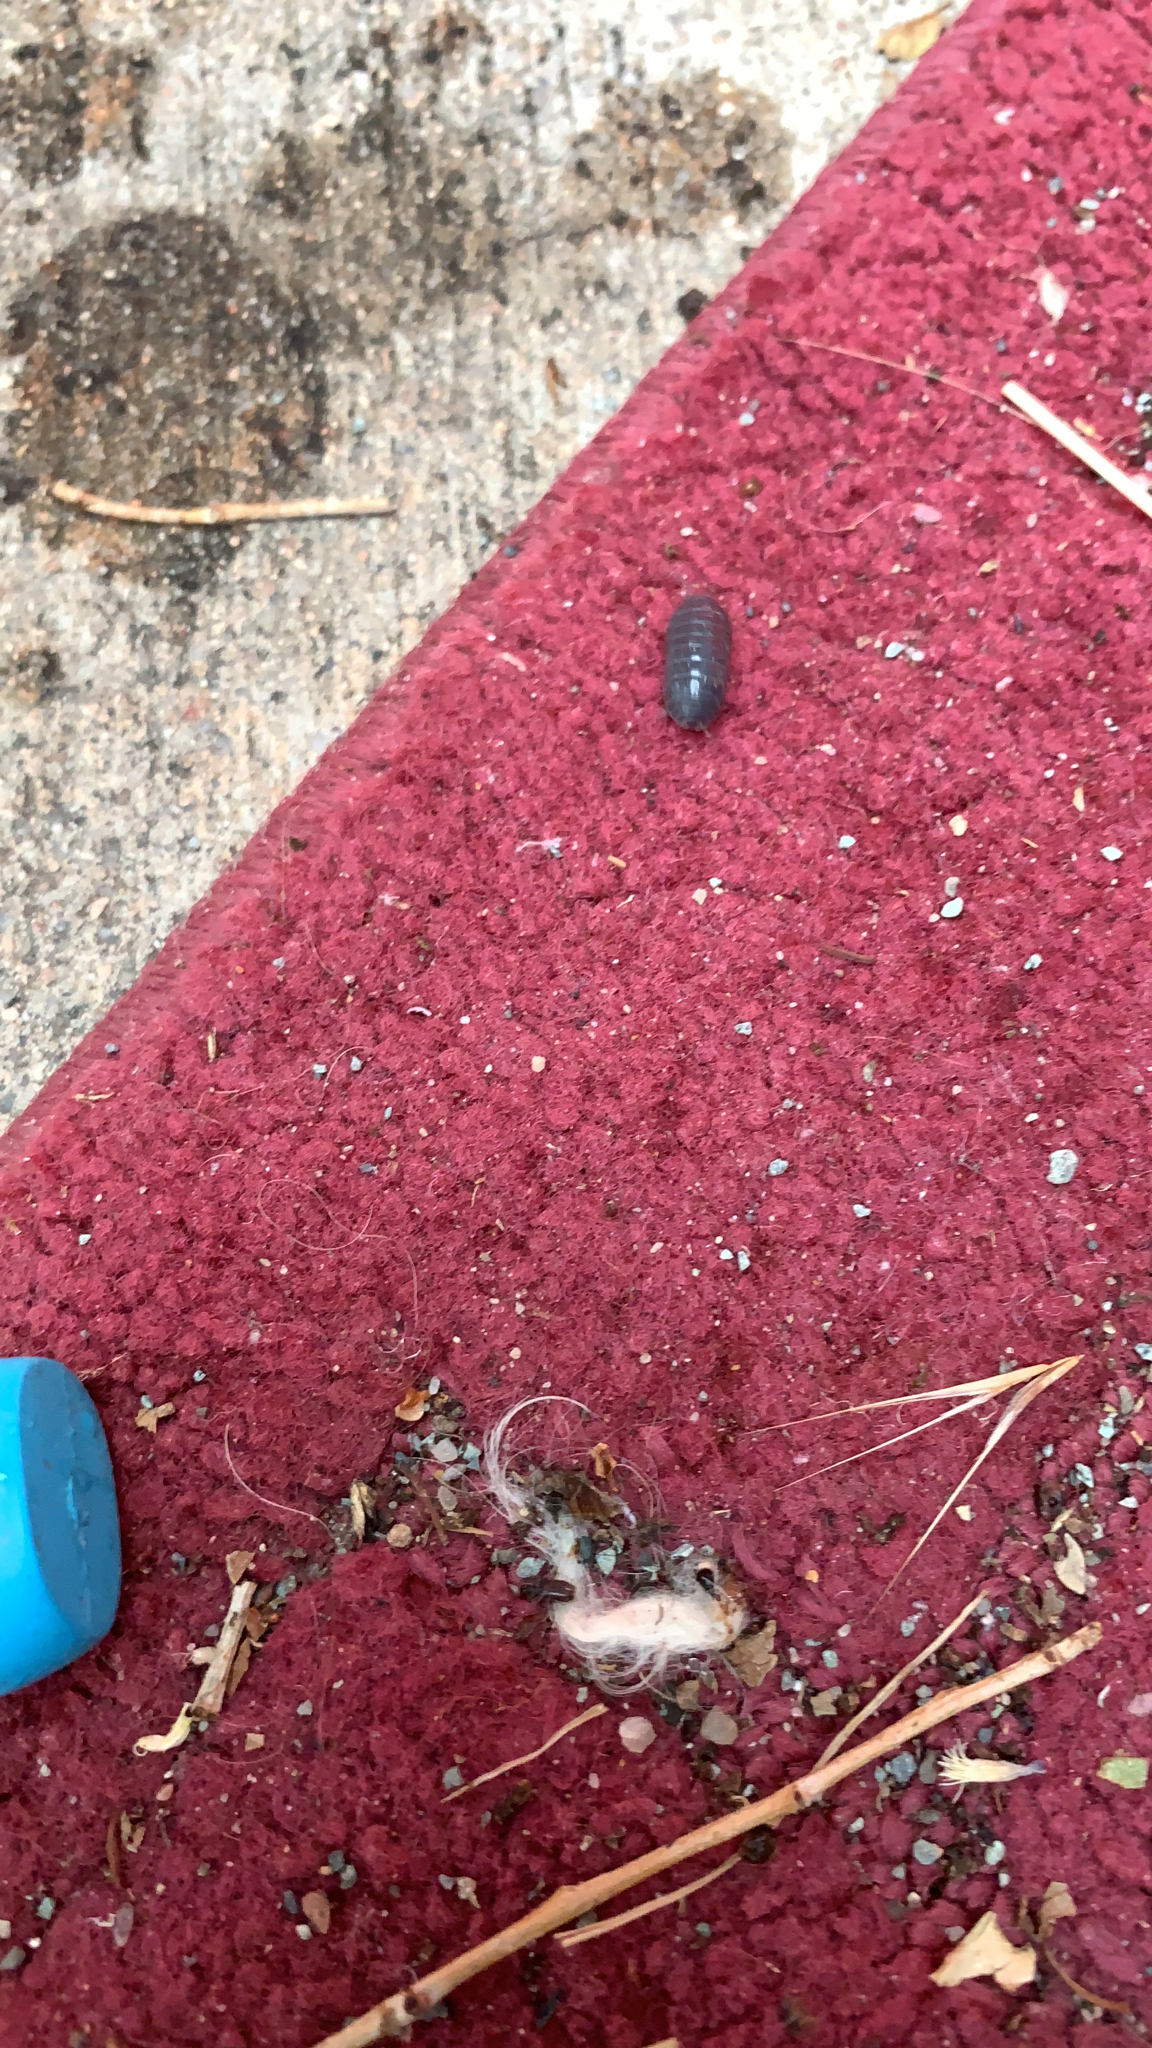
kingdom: Animalia
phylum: Arthropoda
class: Malacostraca
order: Isopoda
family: Armadillidiidae
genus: Armadillidium
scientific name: Armadillidium vulgare
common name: Common pill woodlouse
